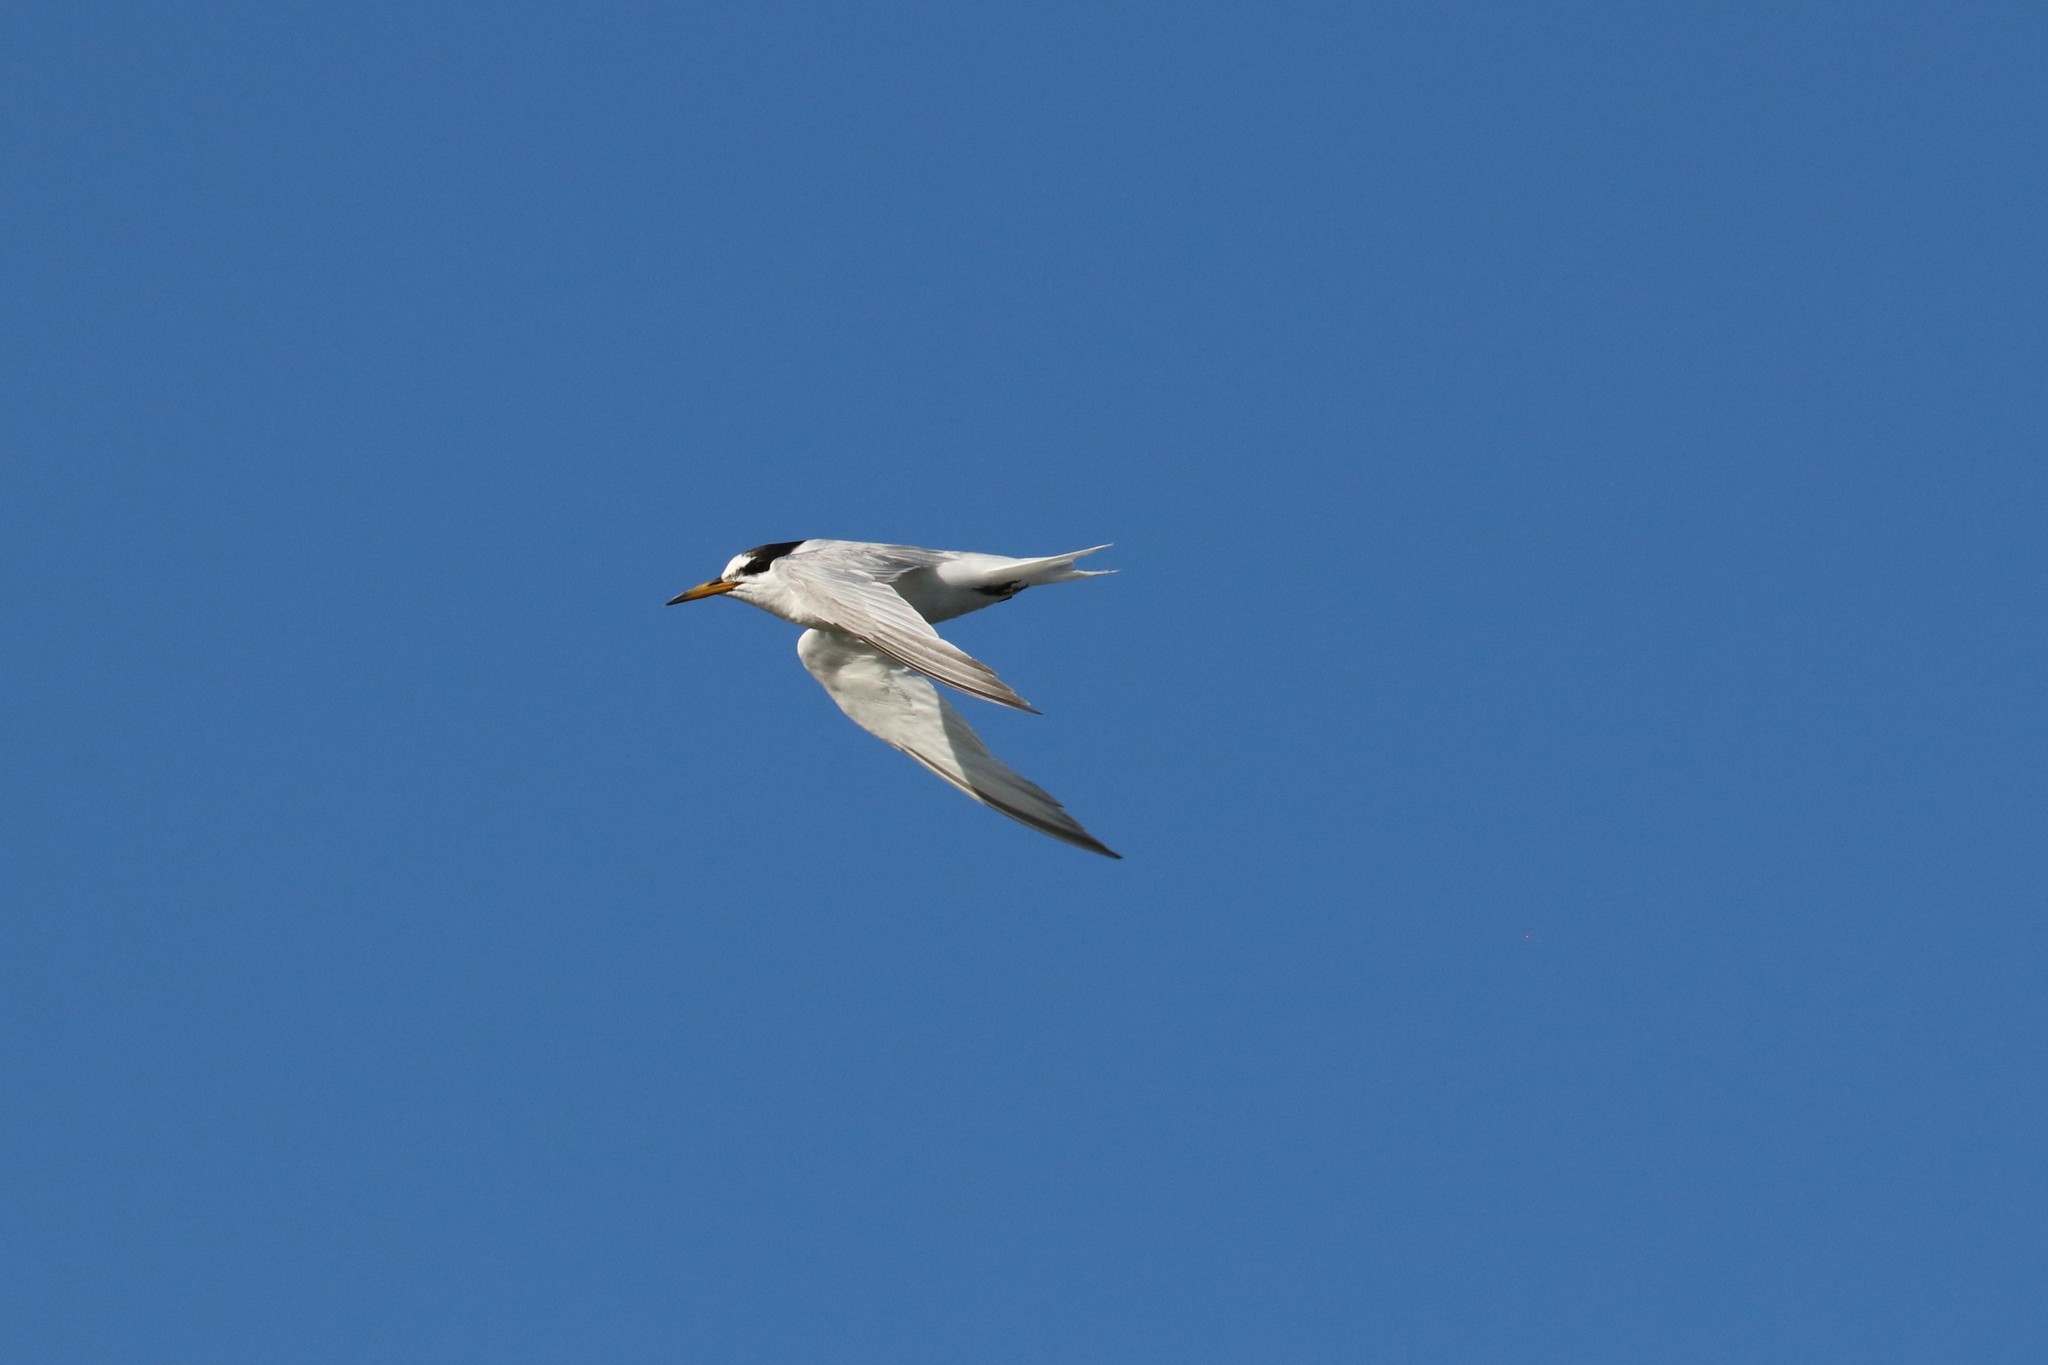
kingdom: Animalia
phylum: Chordata
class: Aves
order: Charadriiformes
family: Laridae
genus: Sternula
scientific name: Sternula albifrons
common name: Little tern
